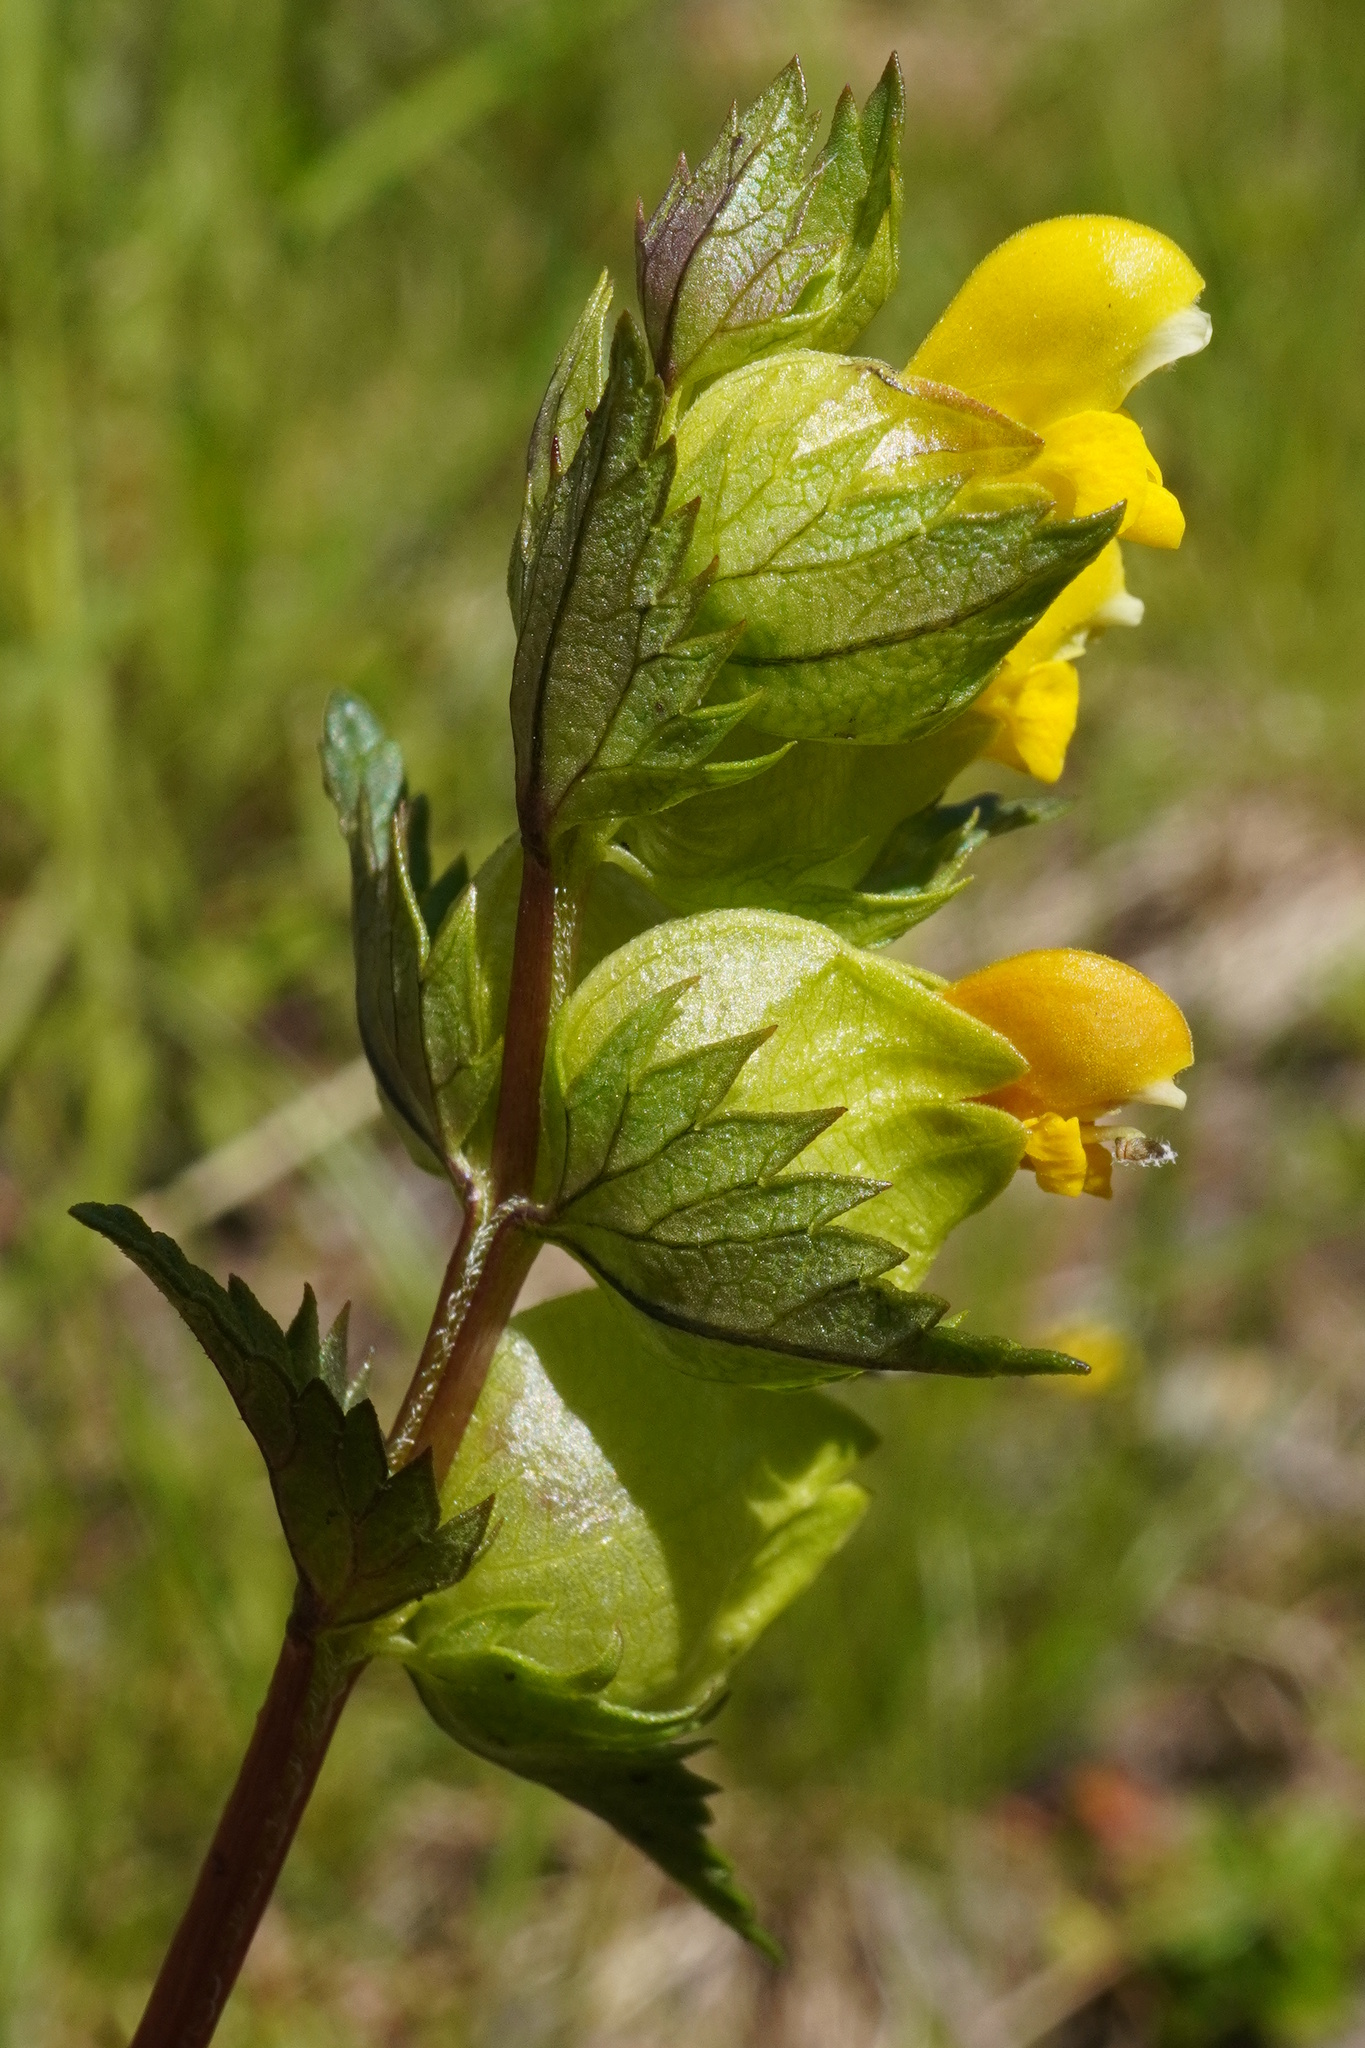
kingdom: Plantae
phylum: Tracheophyta
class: Magnoliopsida
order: Lamiales
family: Orobanchaceae
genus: Rhinanthus
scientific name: Rhinanthus minor
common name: Yellow-rattle
